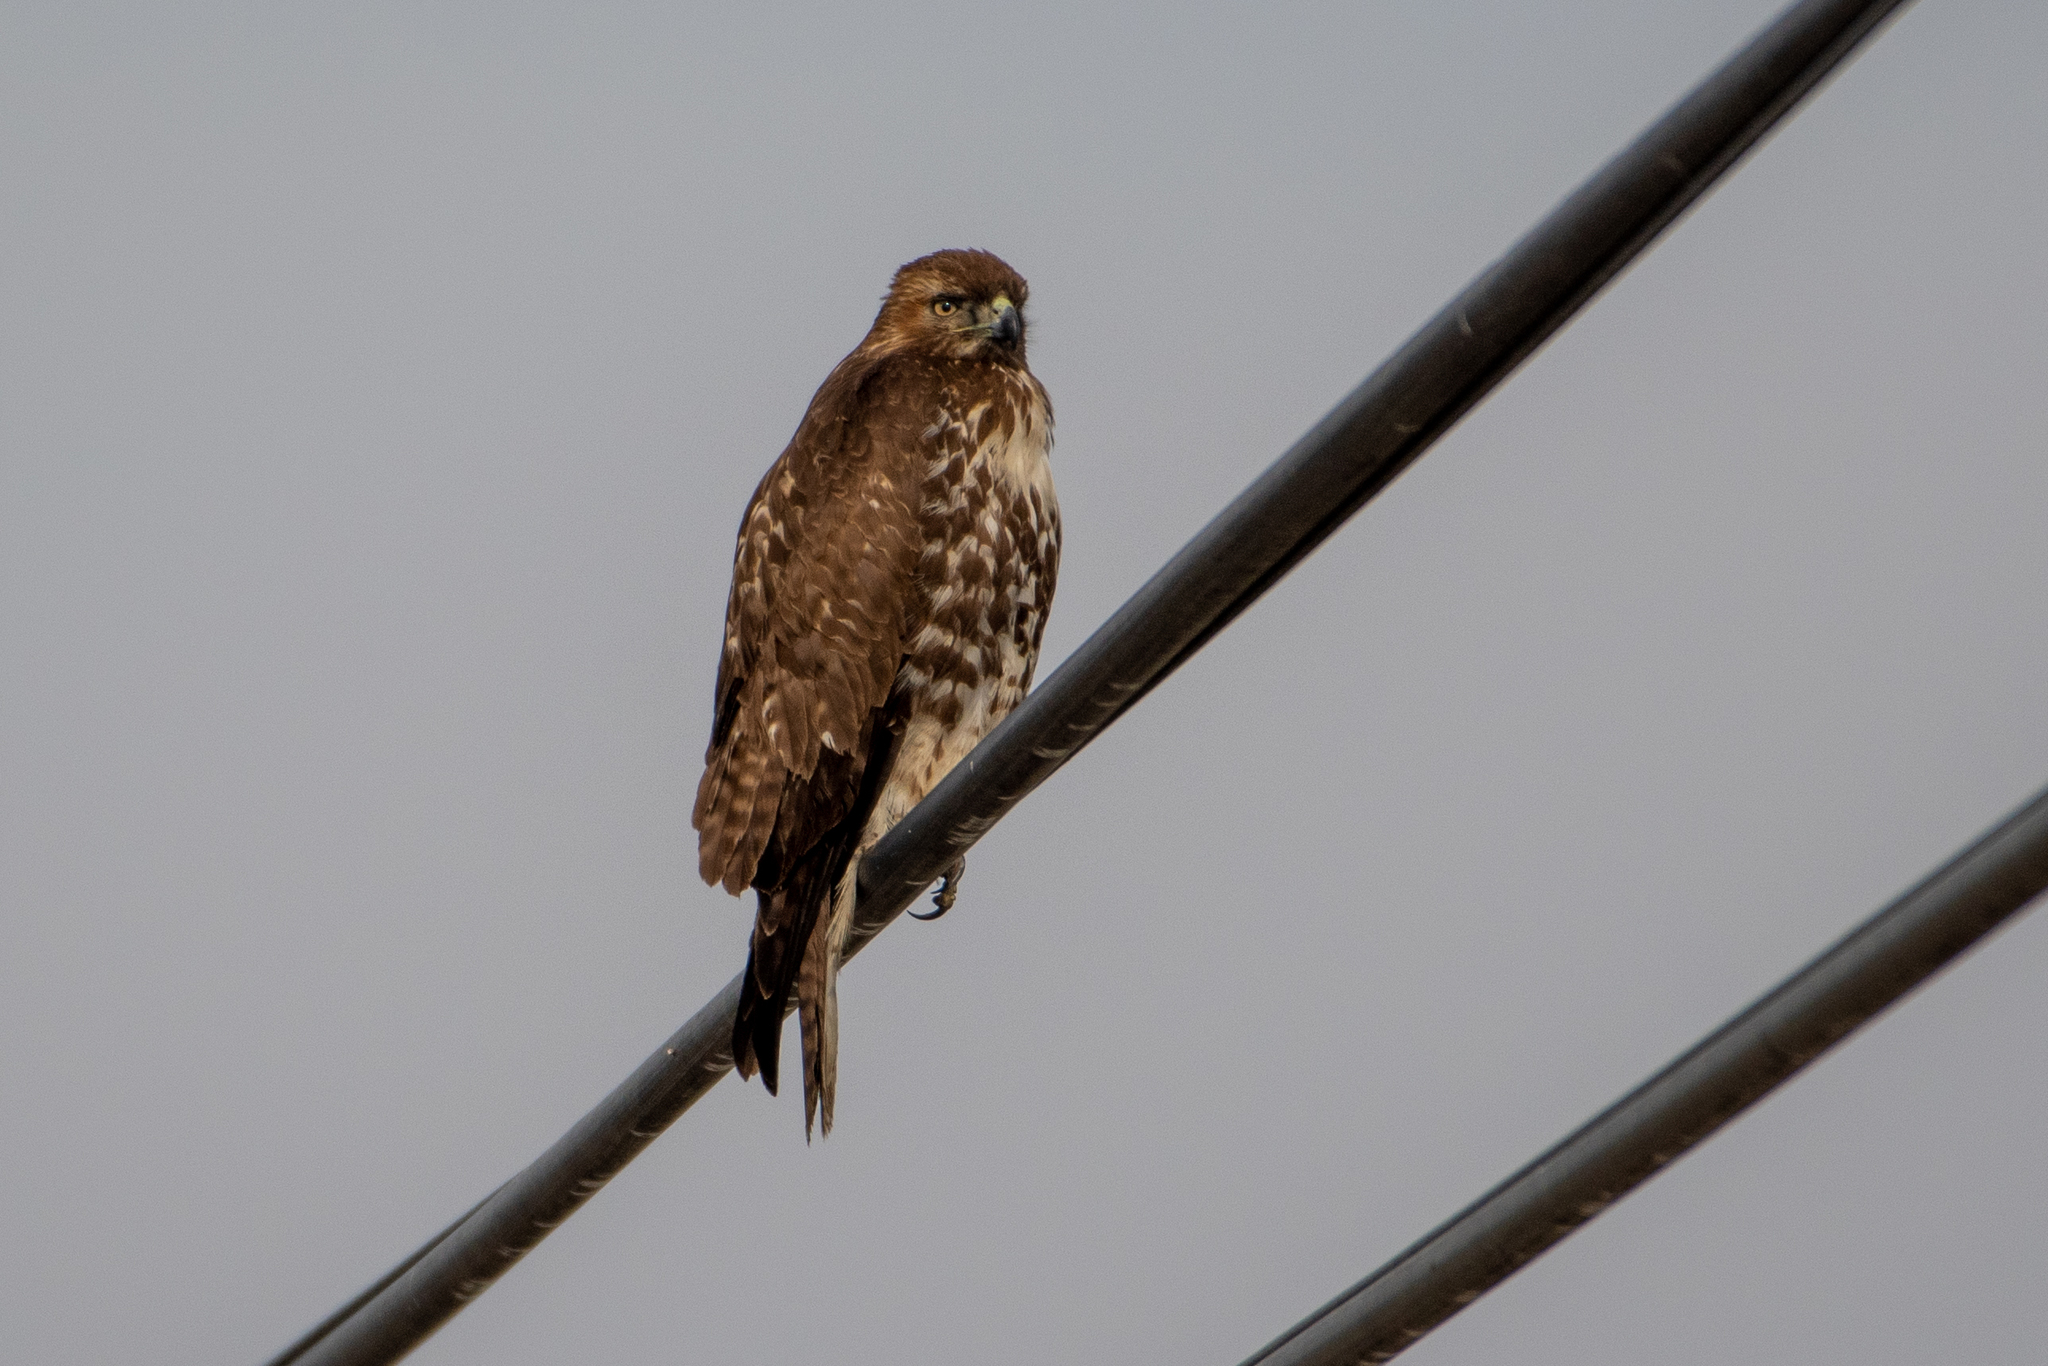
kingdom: Animalia
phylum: Chordata
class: Aves
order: Accipitriformes
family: Accipitridae
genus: Buteo
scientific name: Buteo jamaicensis
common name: Red-tailed hawk
